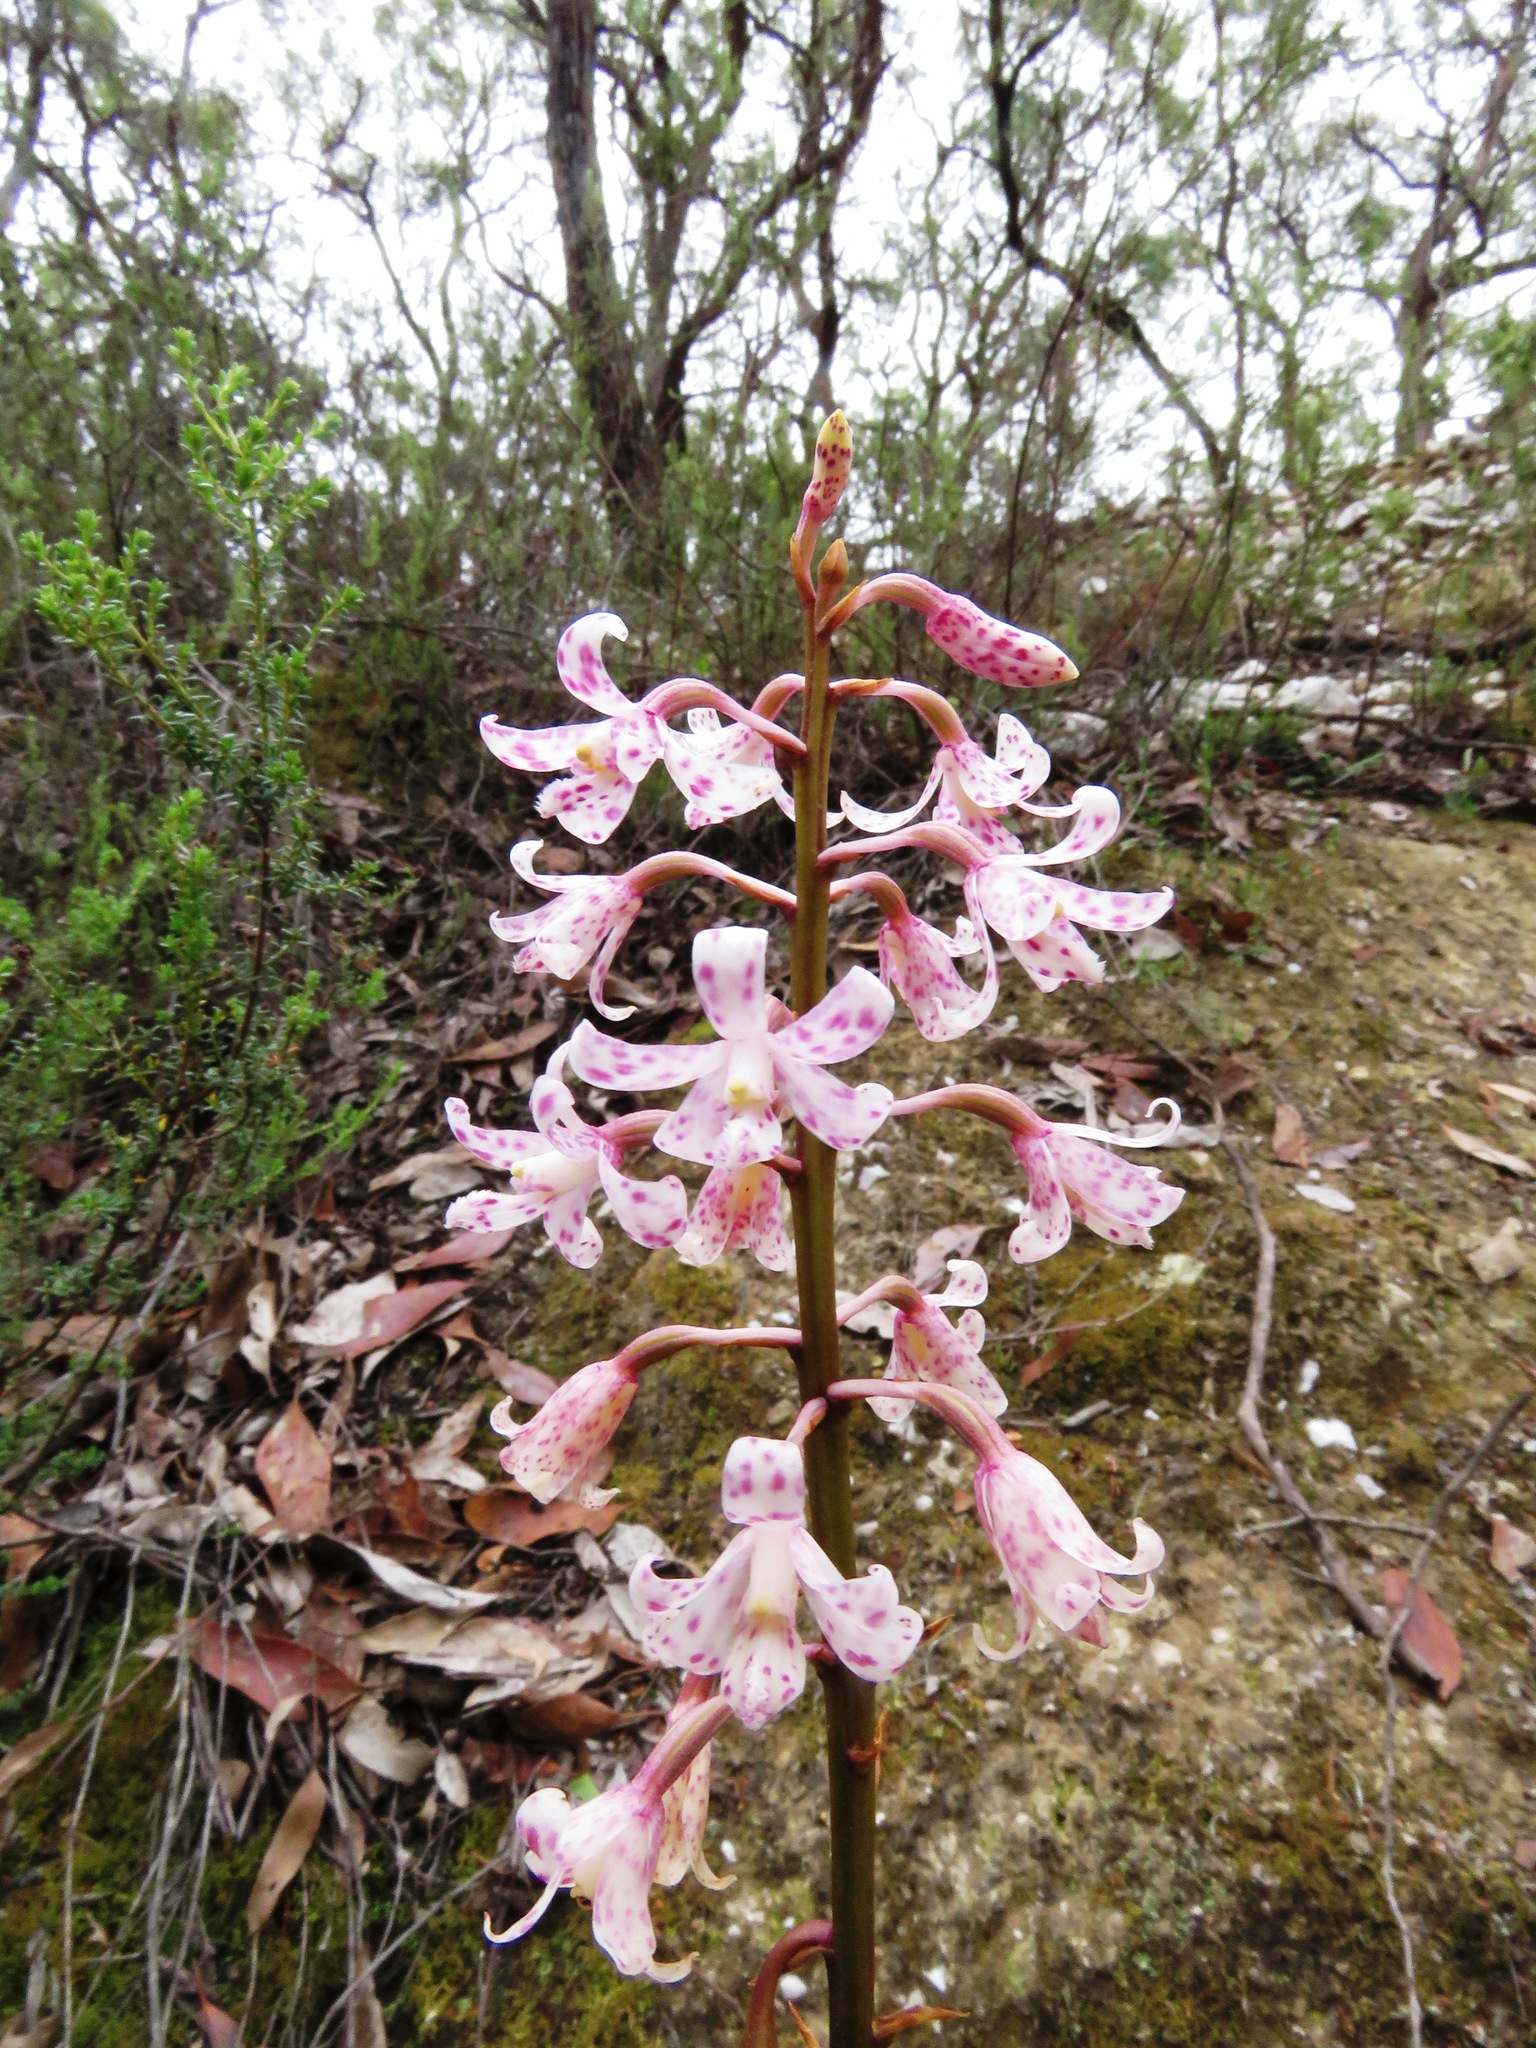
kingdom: Plantae
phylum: Tracheophyta
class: Liliopsida
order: Asparagales
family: Orchidaceae
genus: Dipodium
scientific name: Dipodium pardalinum
